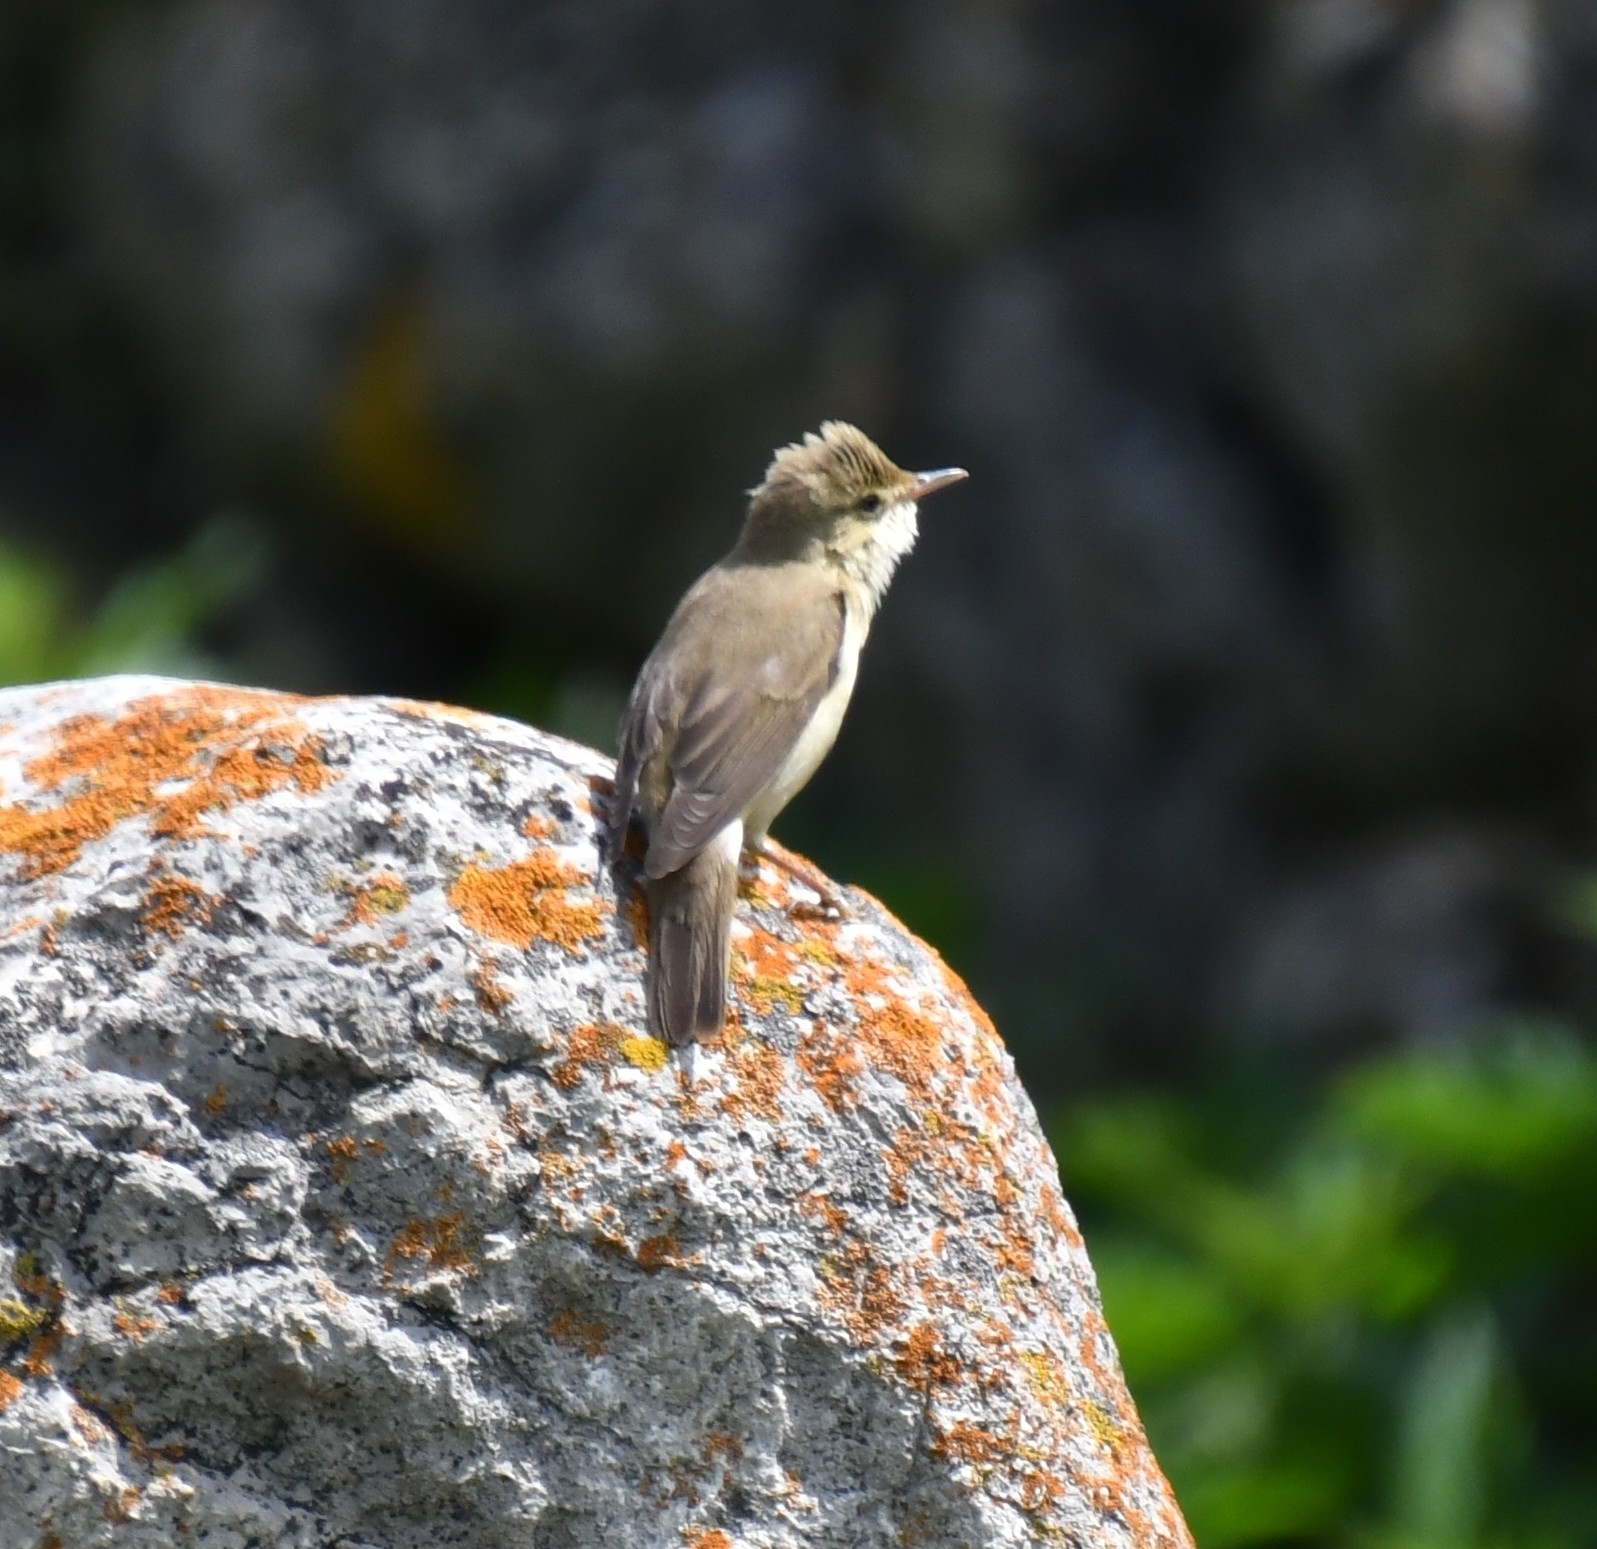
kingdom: Animalia
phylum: Chordata
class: Aves
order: Passeriformes
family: Acrocephalidae
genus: Acrocephalus
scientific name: Acrocephalus palustris
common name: Marsh warbler
